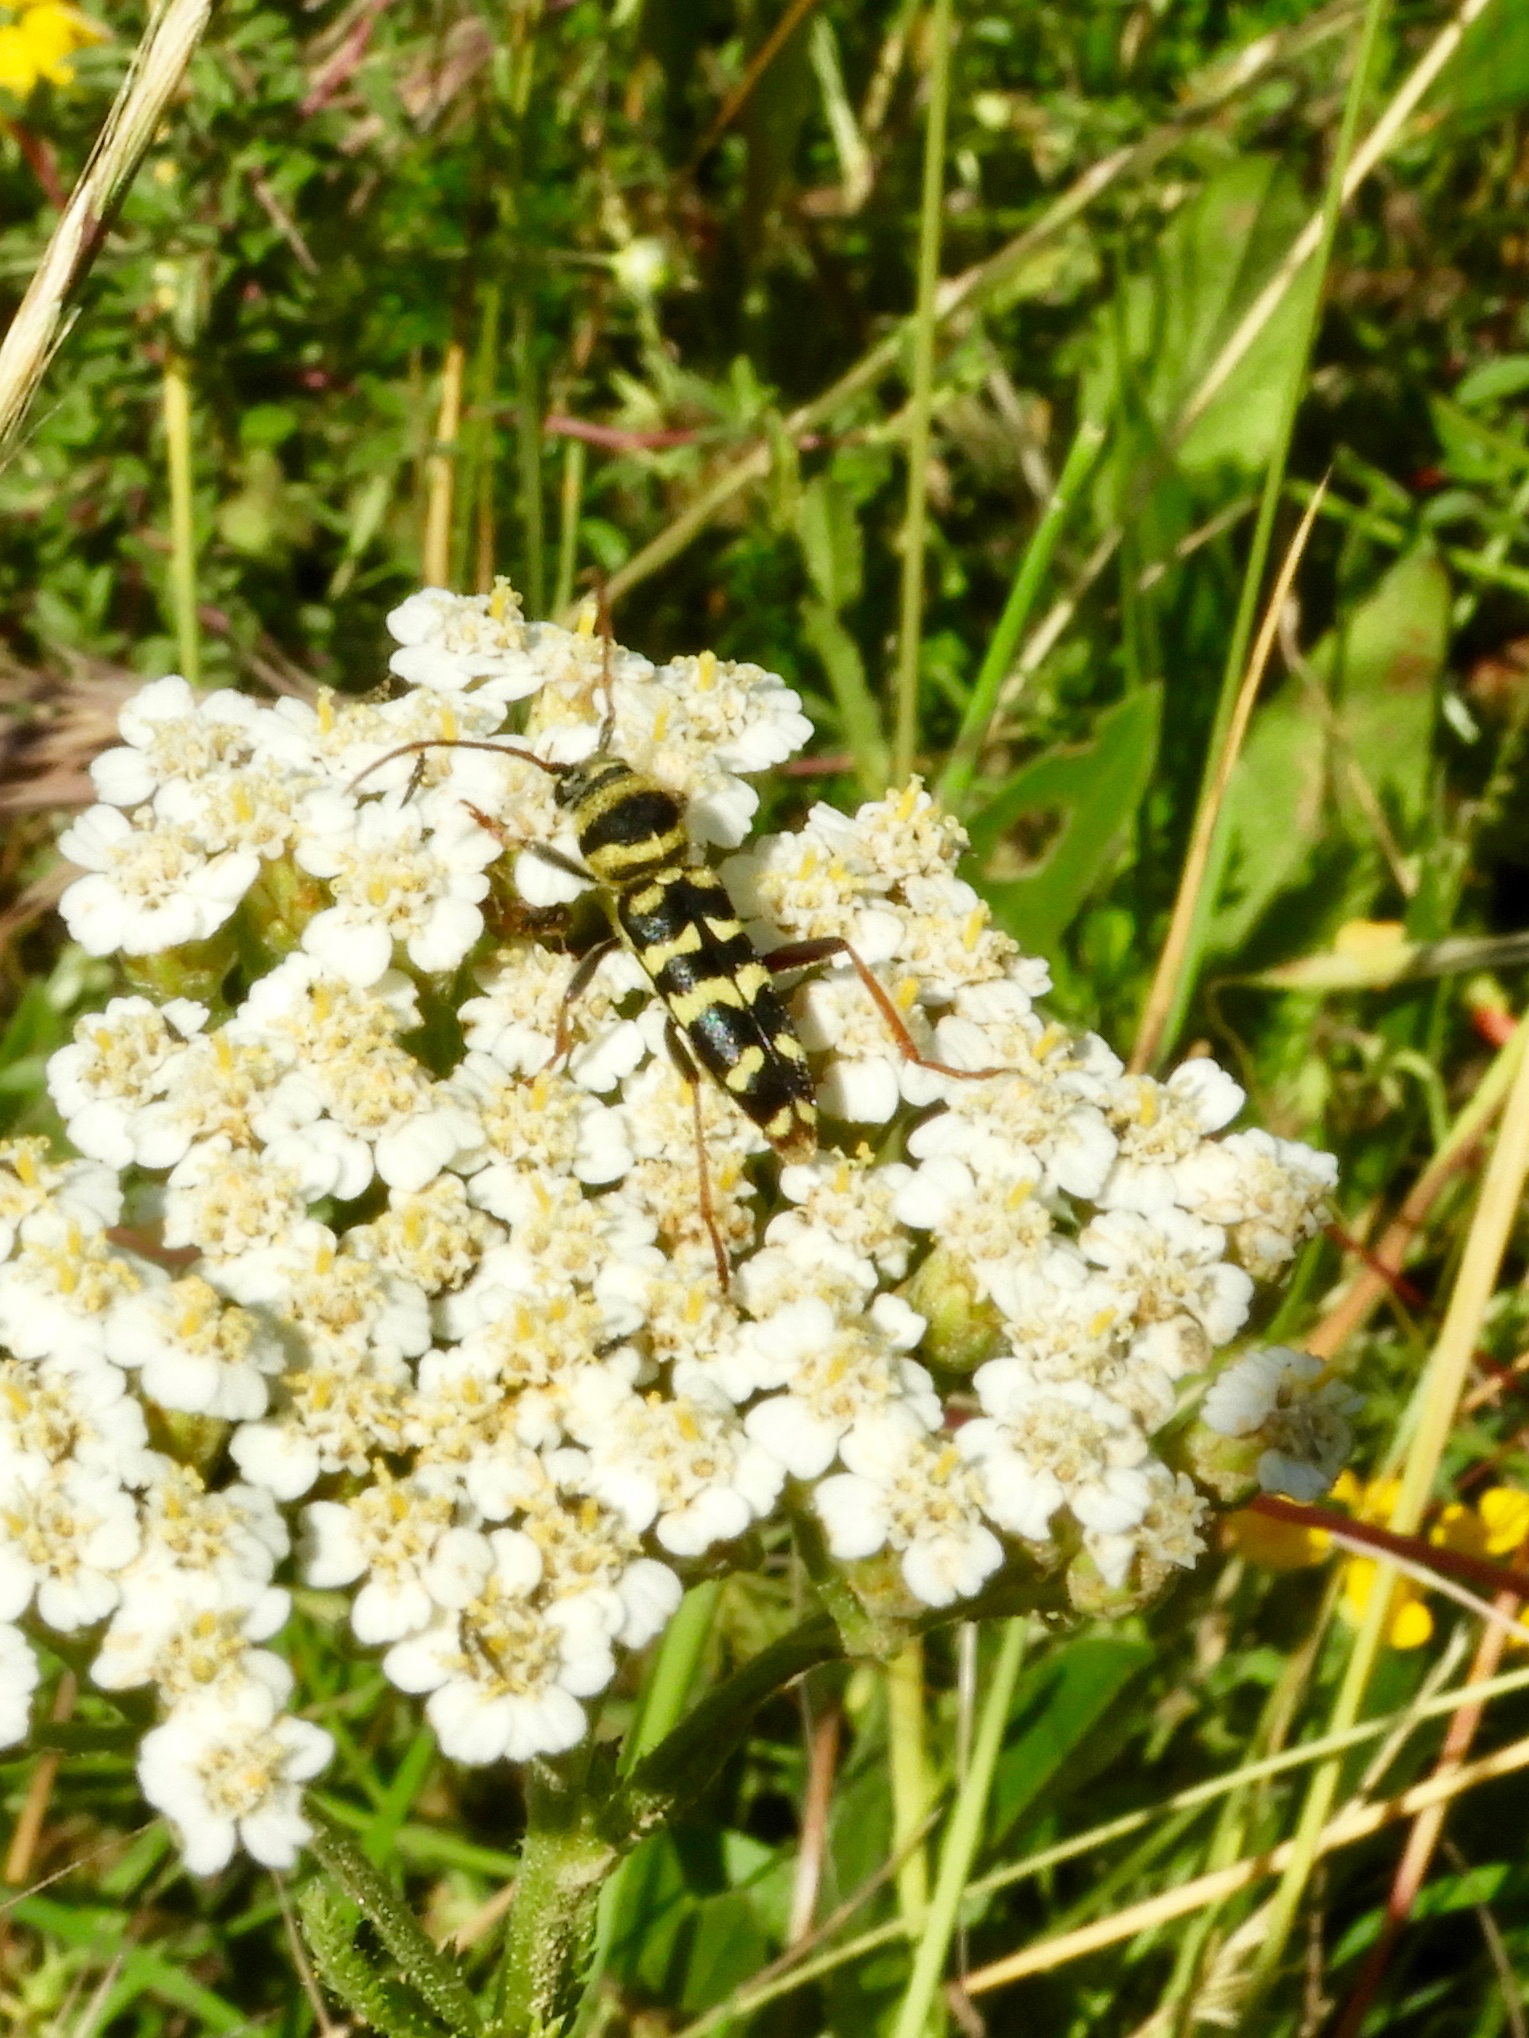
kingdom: Animalia
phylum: Arthropoda
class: Insecta
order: Coleoptera
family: Cerambycidae
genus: Plagionotus
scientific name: Plagionotus floralis
